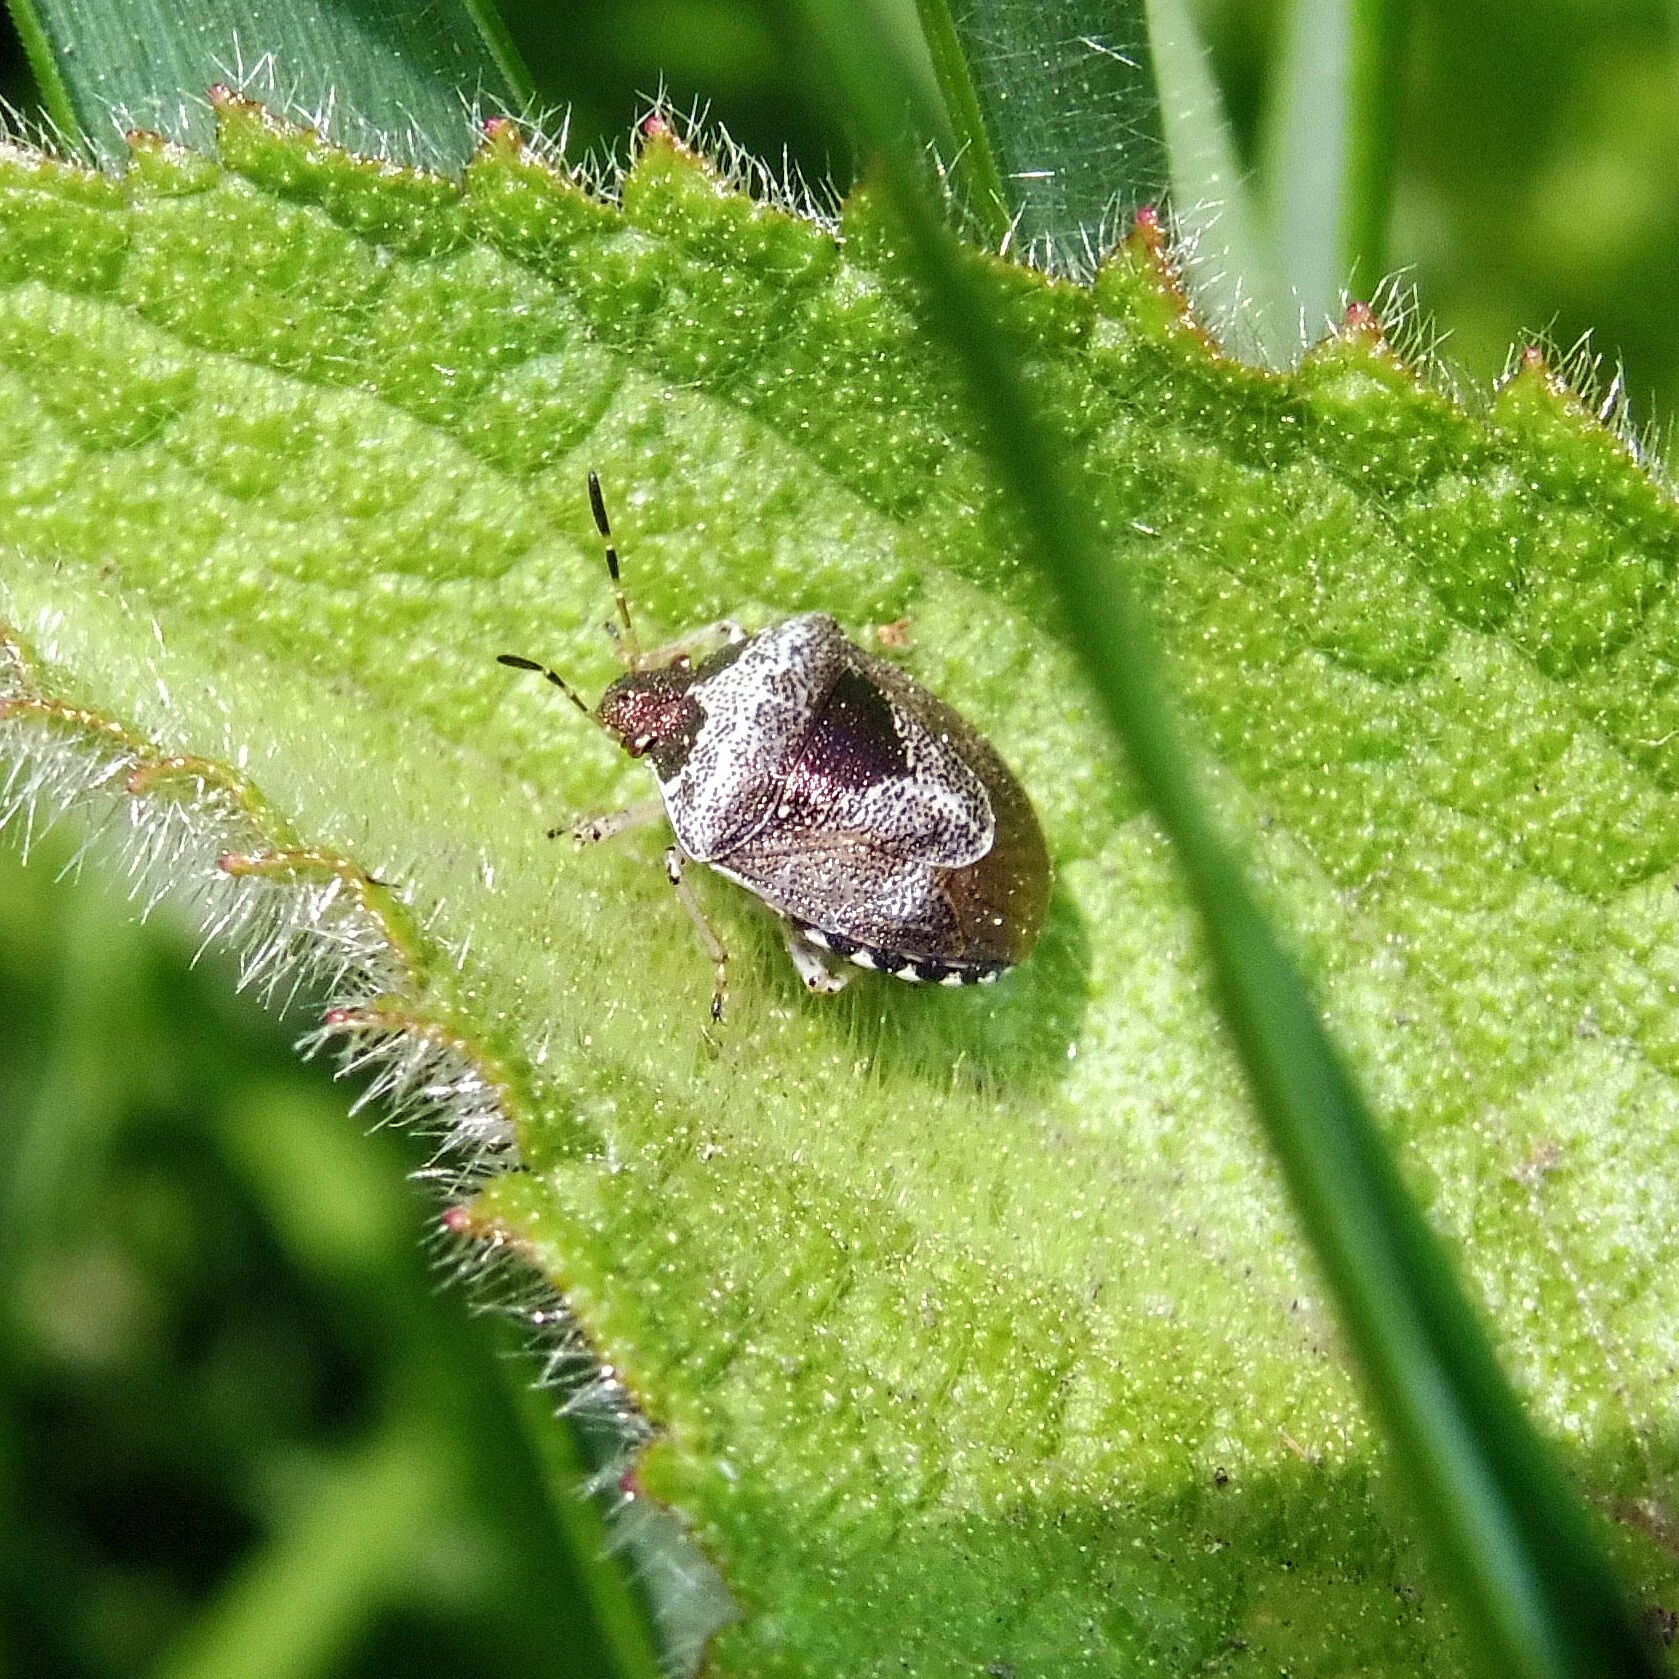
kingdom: Animalia
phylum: Arthropoda
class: Insecta
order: Hemiptera
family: Pentatomidae
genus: Eysarcoris
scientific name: Eysarcoris venustissimus
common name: Woundwort shieldbug
